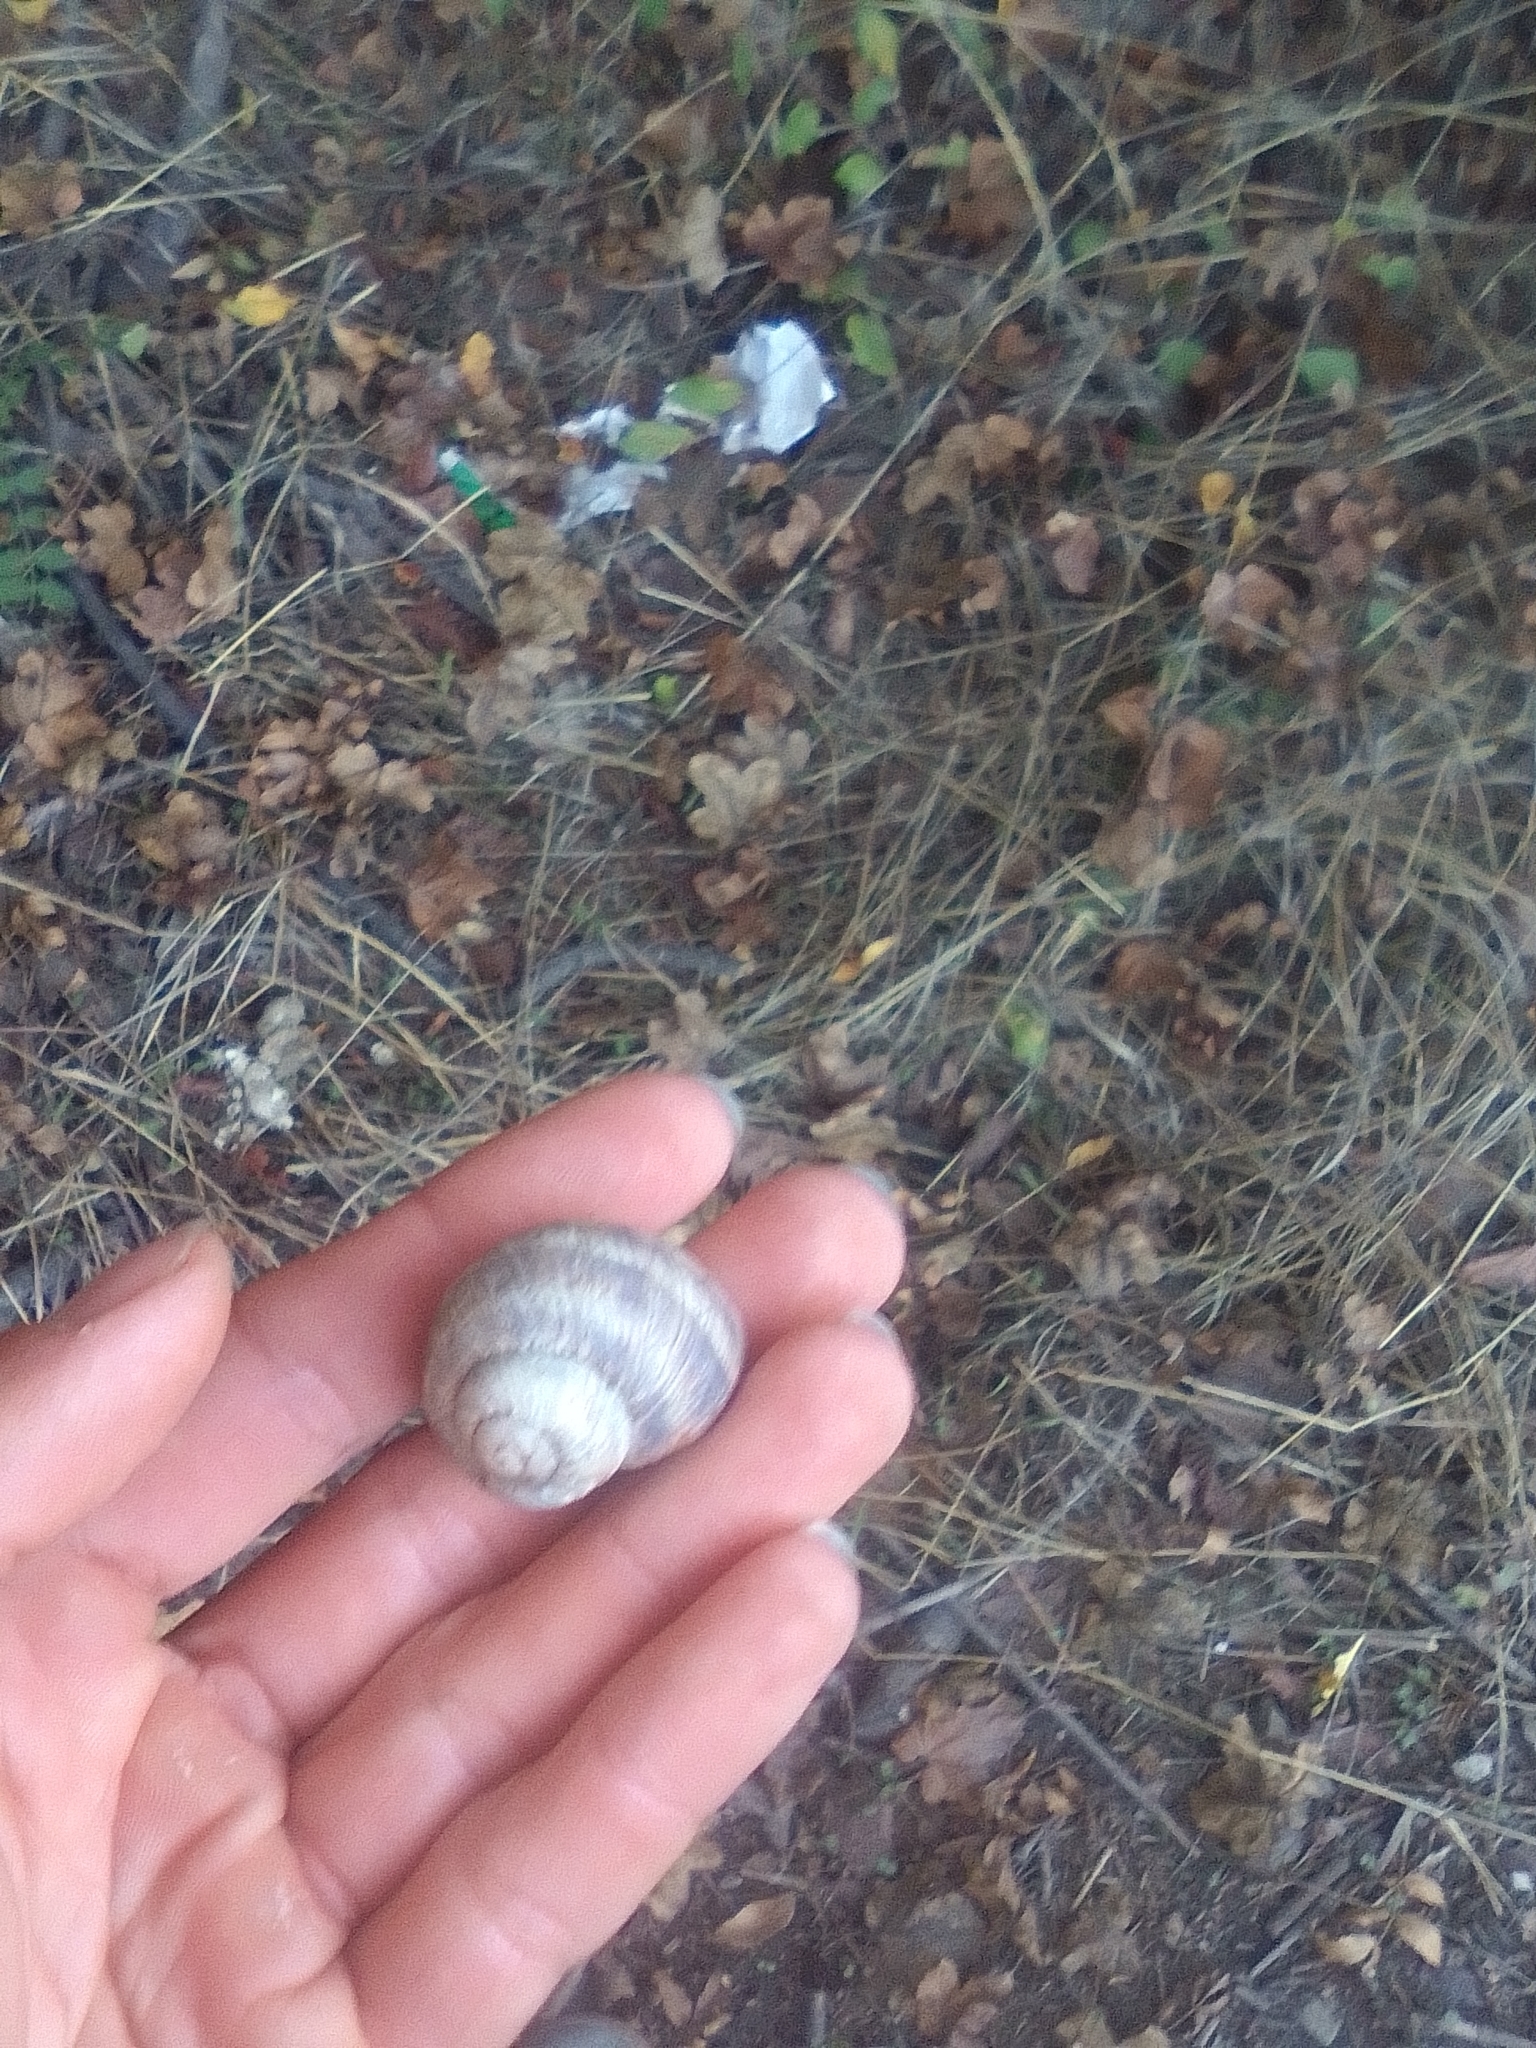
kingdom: Animalia
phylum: Mollusca
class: Gastropoda
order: Stylommatophora
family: Helicidae
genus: Helix
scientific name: Helix albescens
